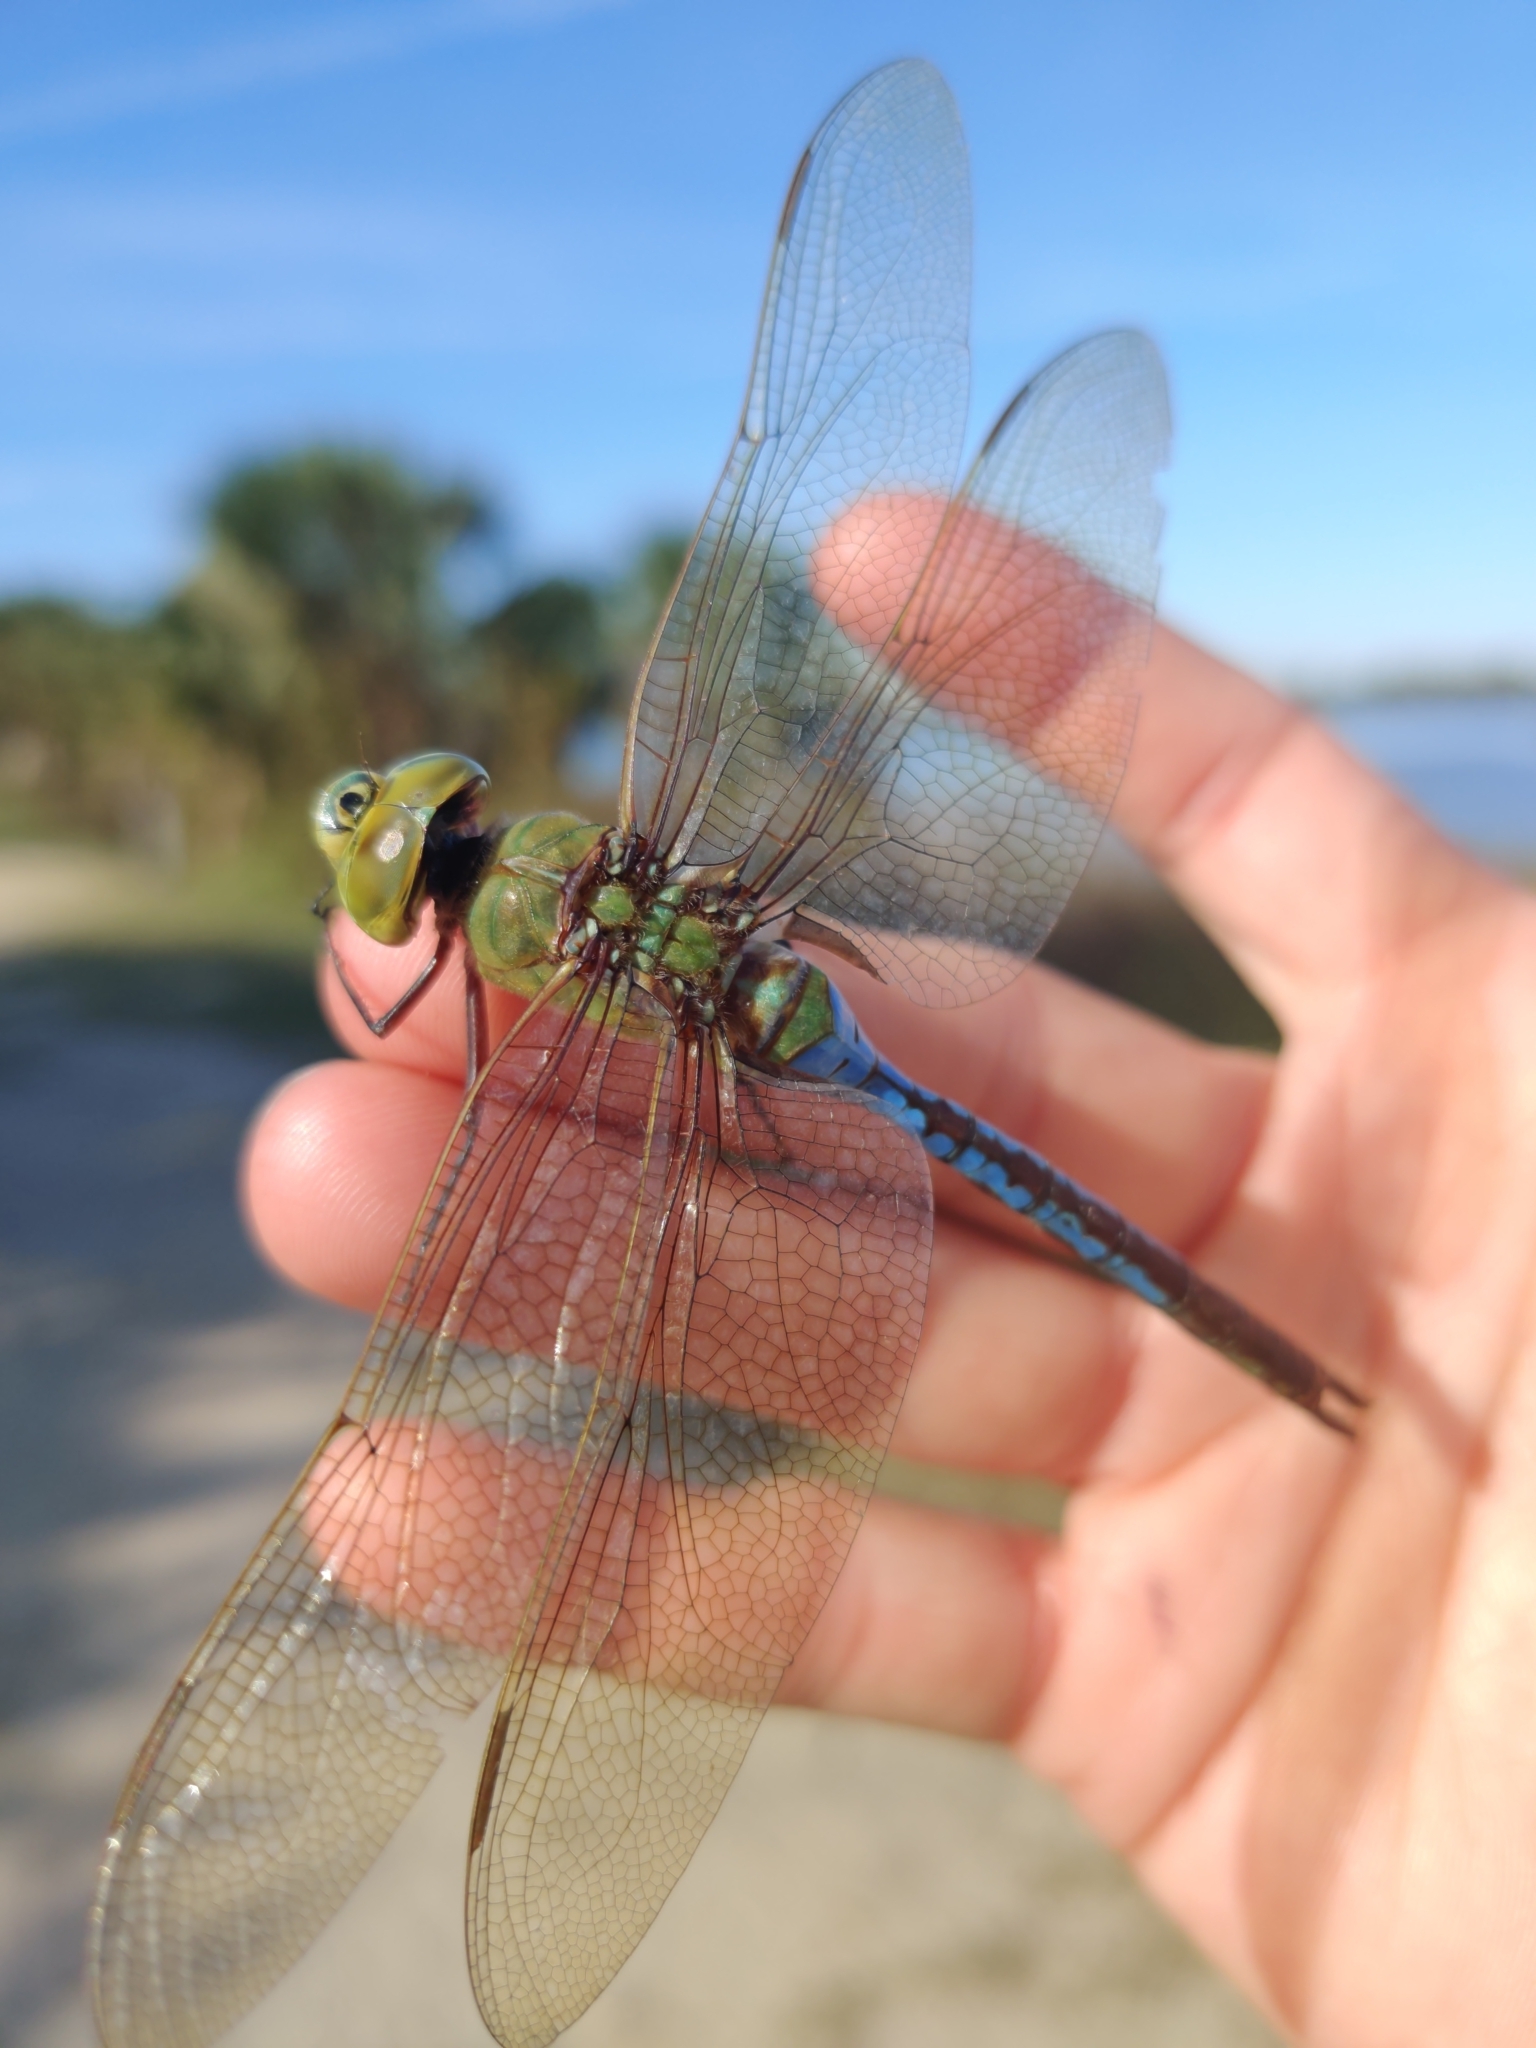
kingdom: Animalia
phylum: Arthropoda
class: Insecta
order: Odonata
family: Aeshnidae
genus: Anax
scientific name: Anax junius
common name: Common green darner
